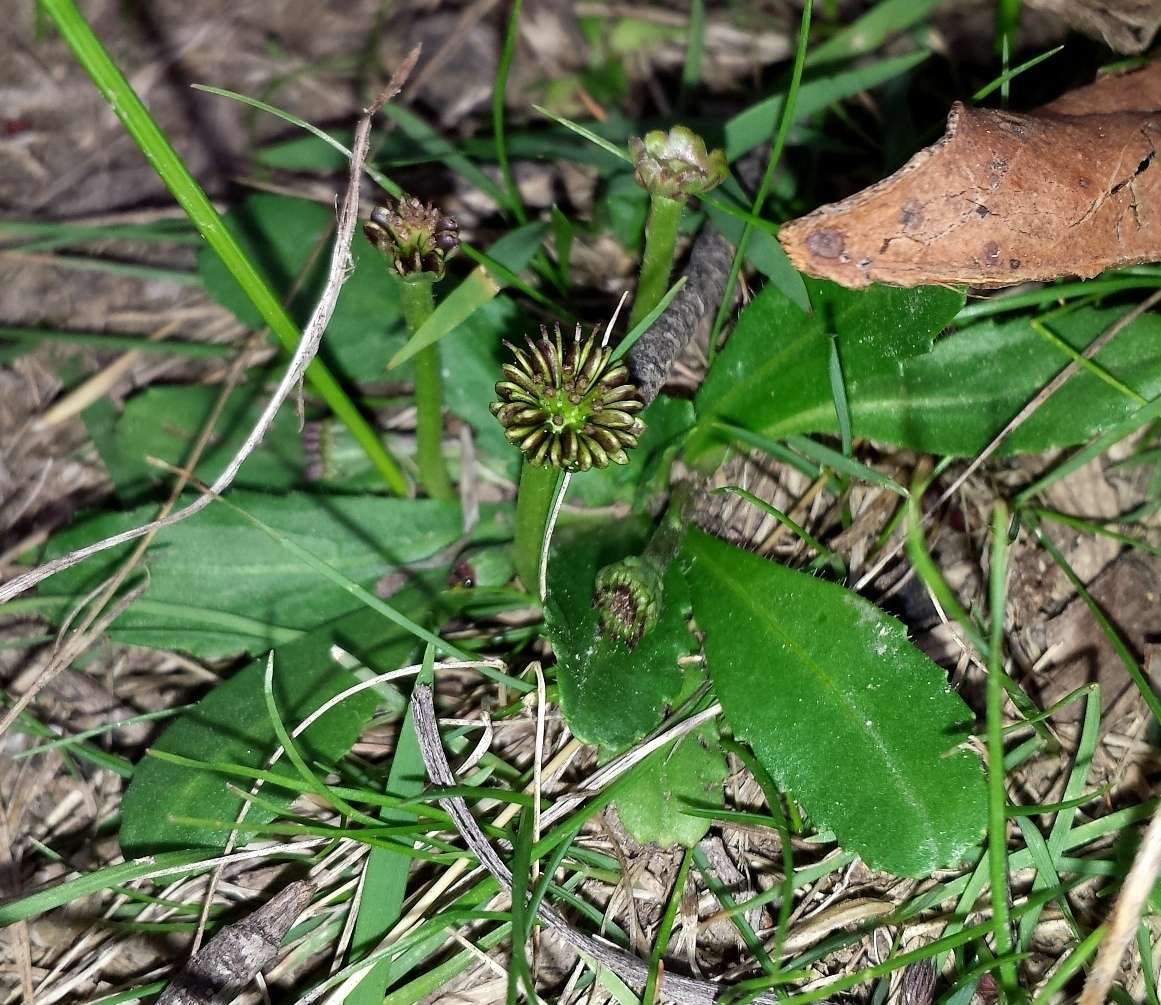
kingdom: Plantae
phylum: Tracheophyta
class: Magnoliopsida
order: Asterales
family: Asteraceae
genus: Solenogyne
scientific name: Solenogyne dominii
